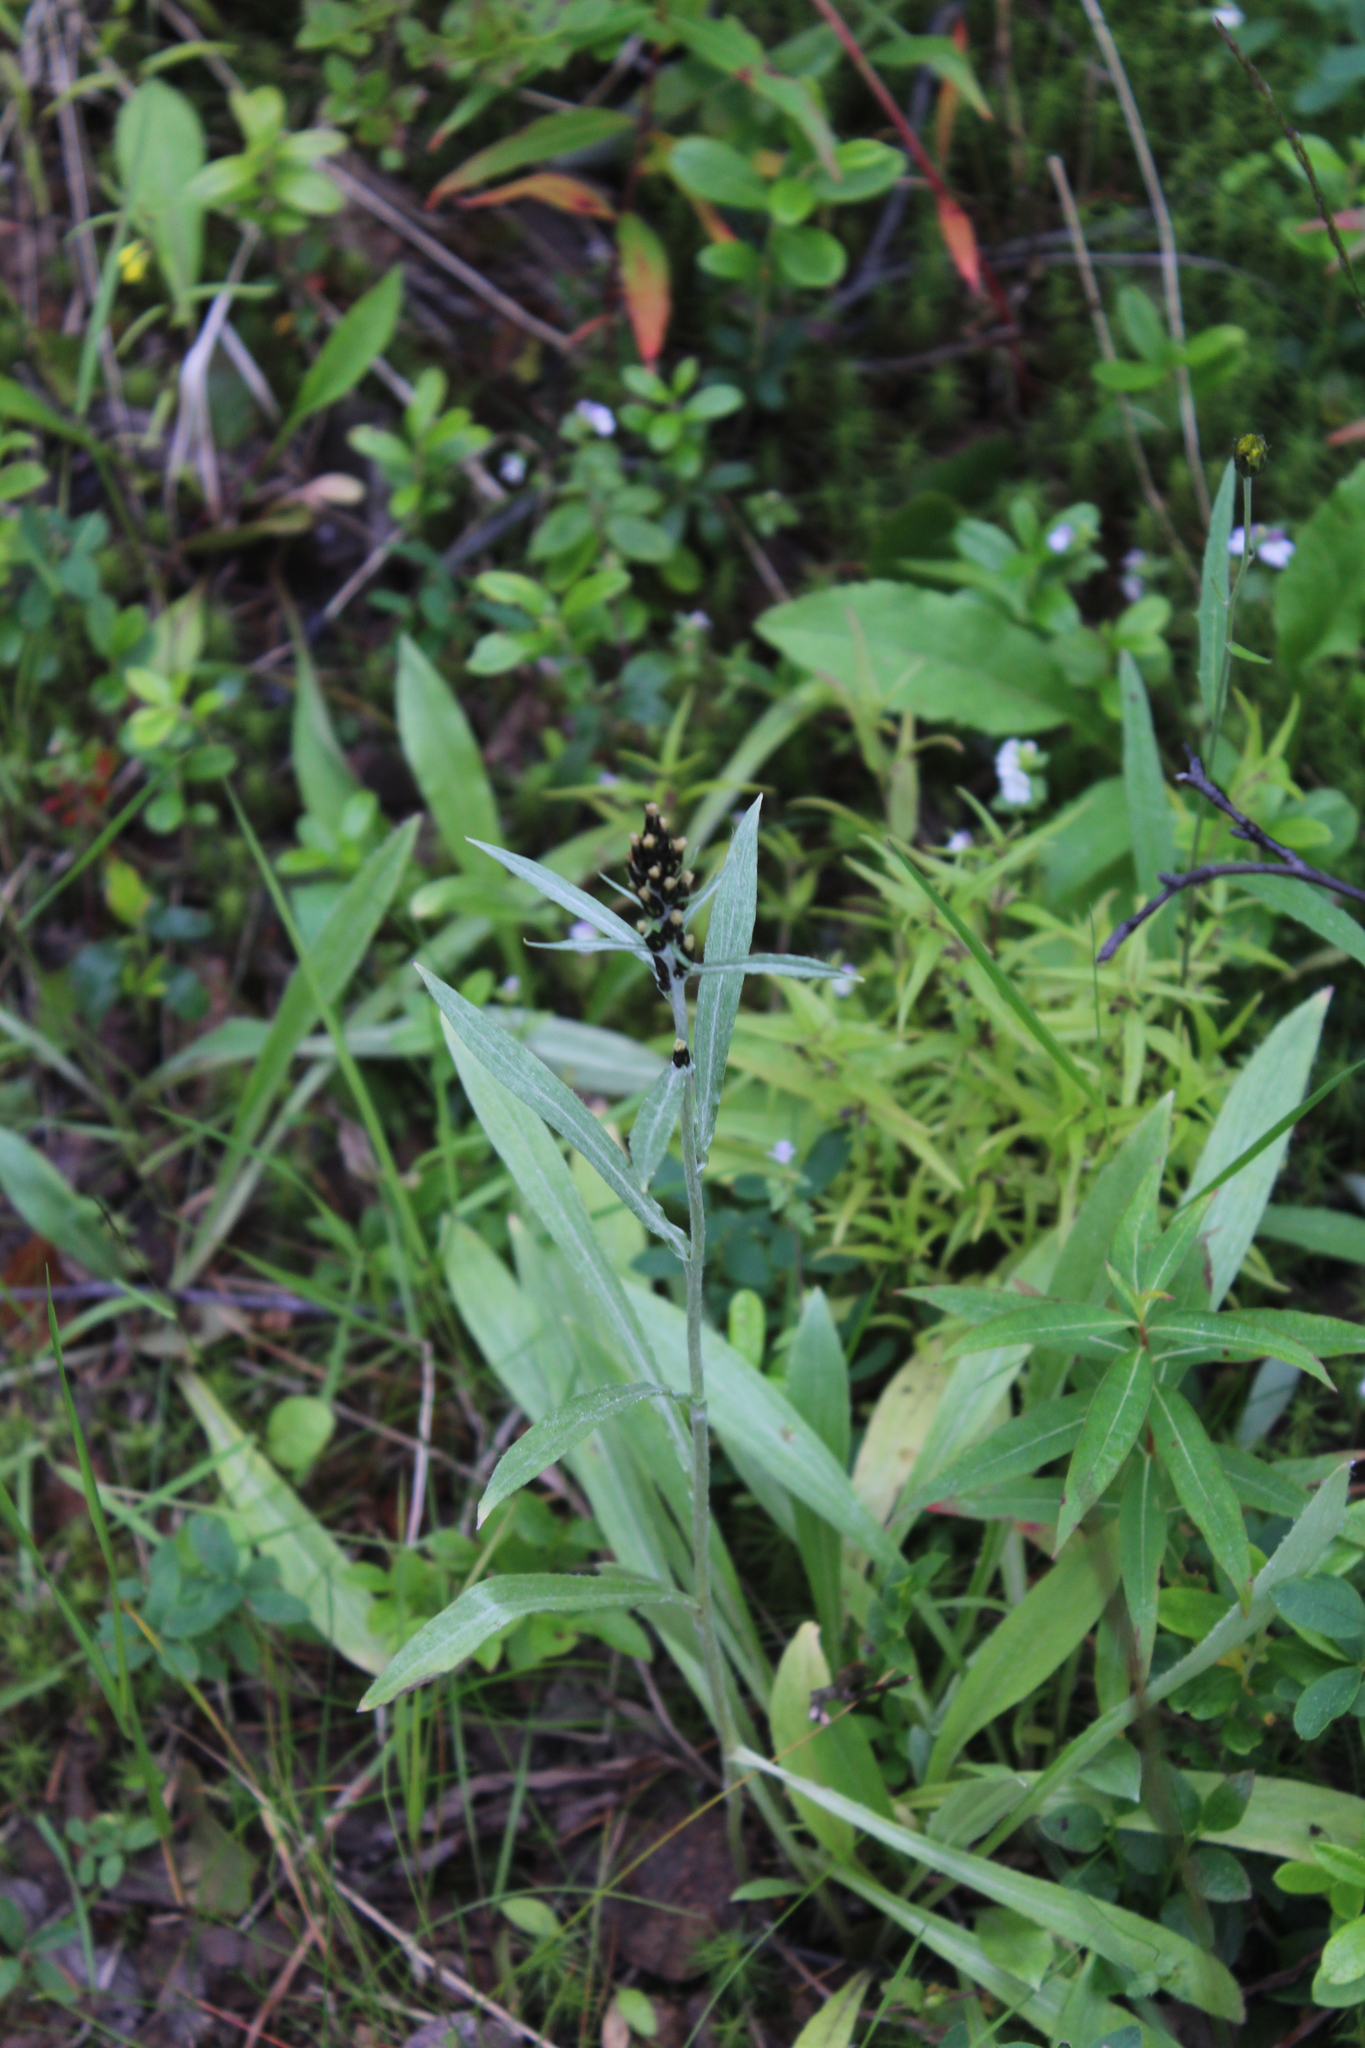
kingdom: Plantae
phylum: Tracheophyta
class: Magnoliopsida
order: Asterales
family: Asteraceae
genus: Omalotheca
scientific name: Omalotheca norvegica
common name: Norwegian arctic-cudweed
